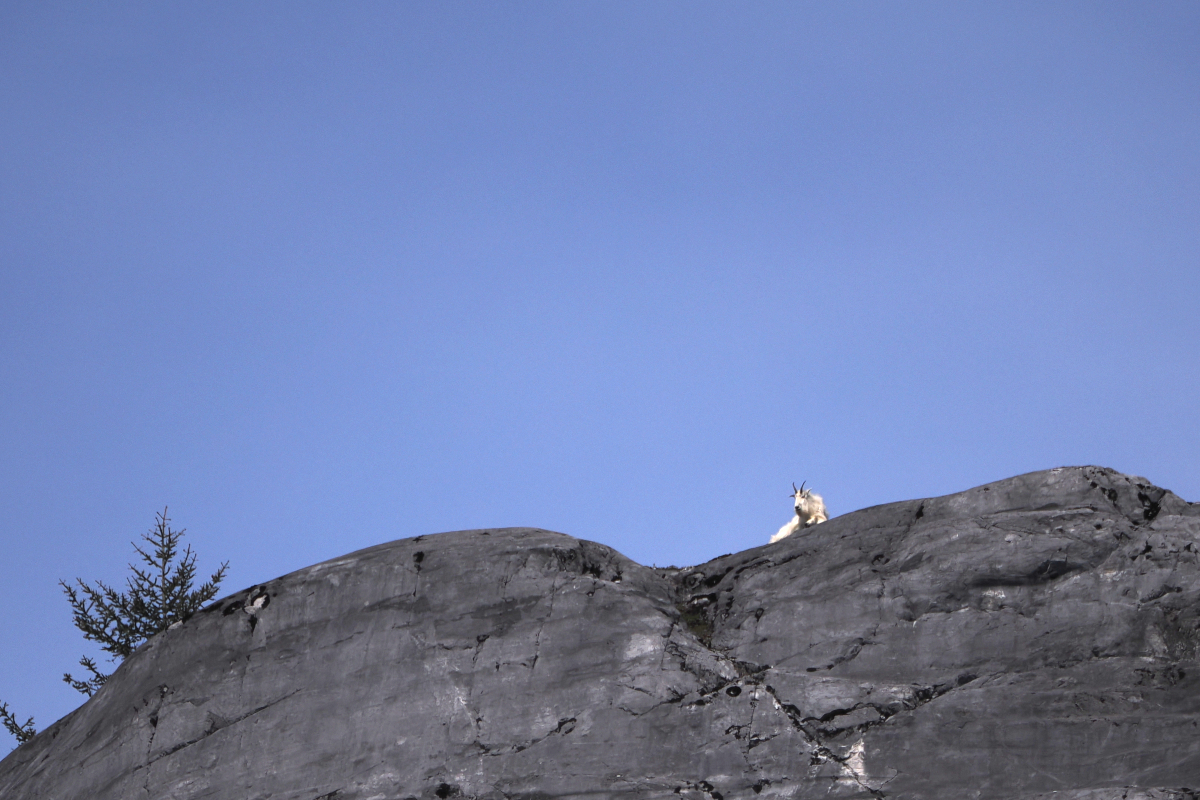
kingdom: Animalia
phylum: Chordata
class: Mammalia
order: Artiodactyla
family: Bovidae
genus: Oreamnos
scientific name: Oreamnos americanus
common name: Mountain goat
